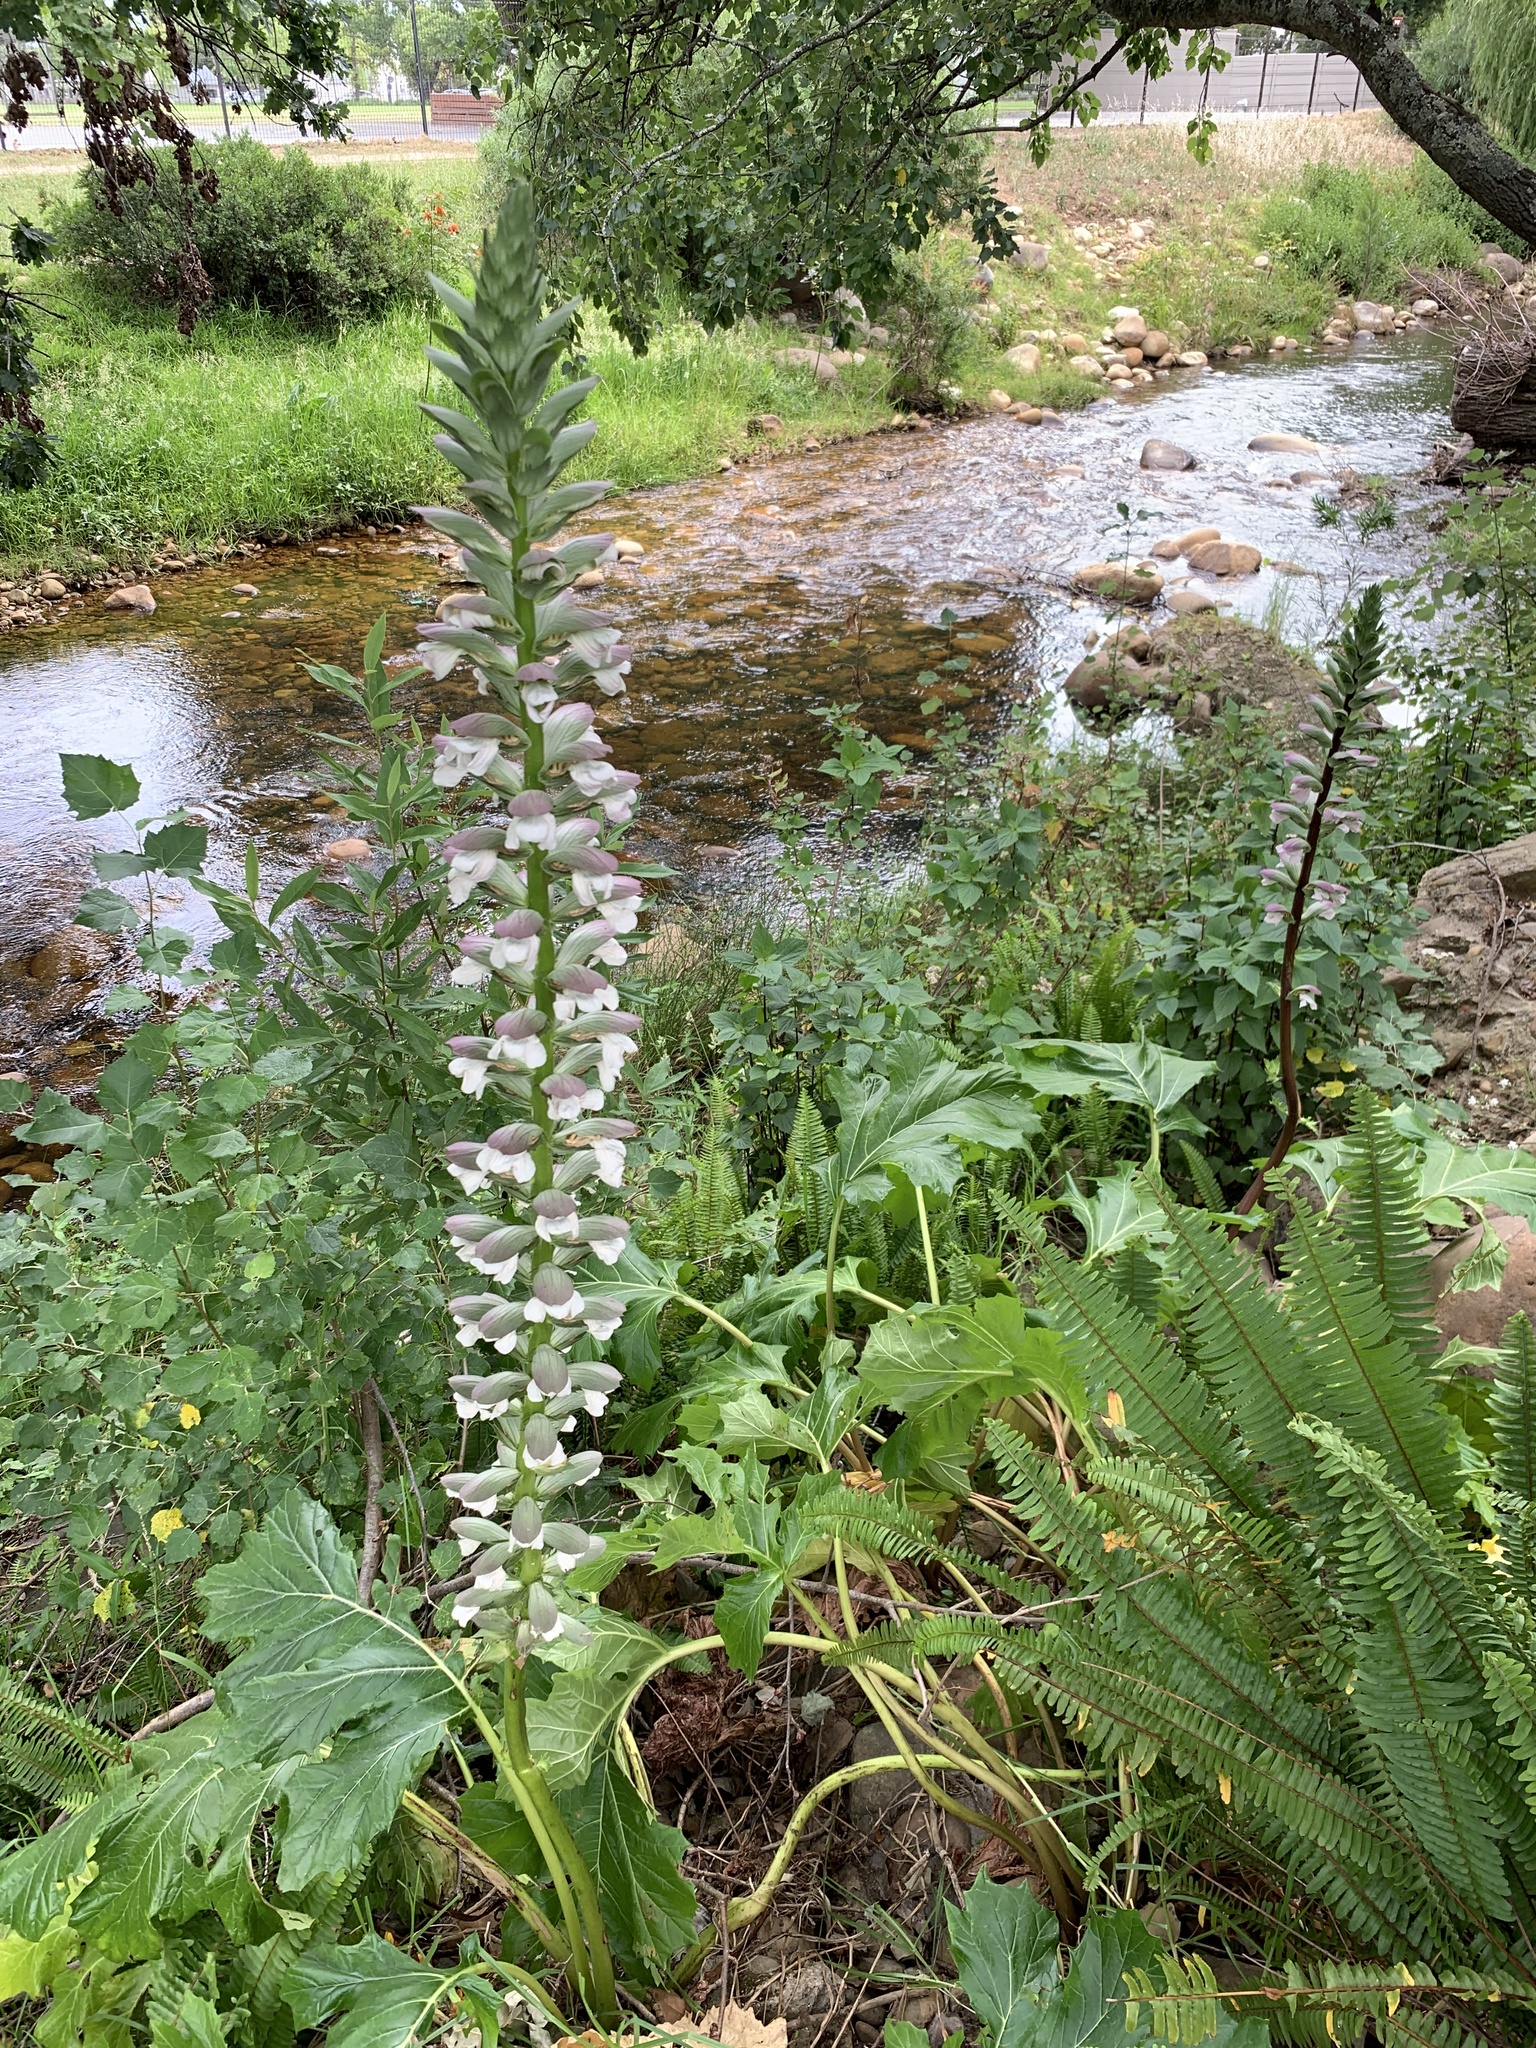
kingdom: Plantae
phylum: Tracheophyta
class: Magnoliopsida
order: Lamiales
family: Acanthaceae
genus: Acanthus
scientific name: Acanthus mollis
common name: Bear's-breech
